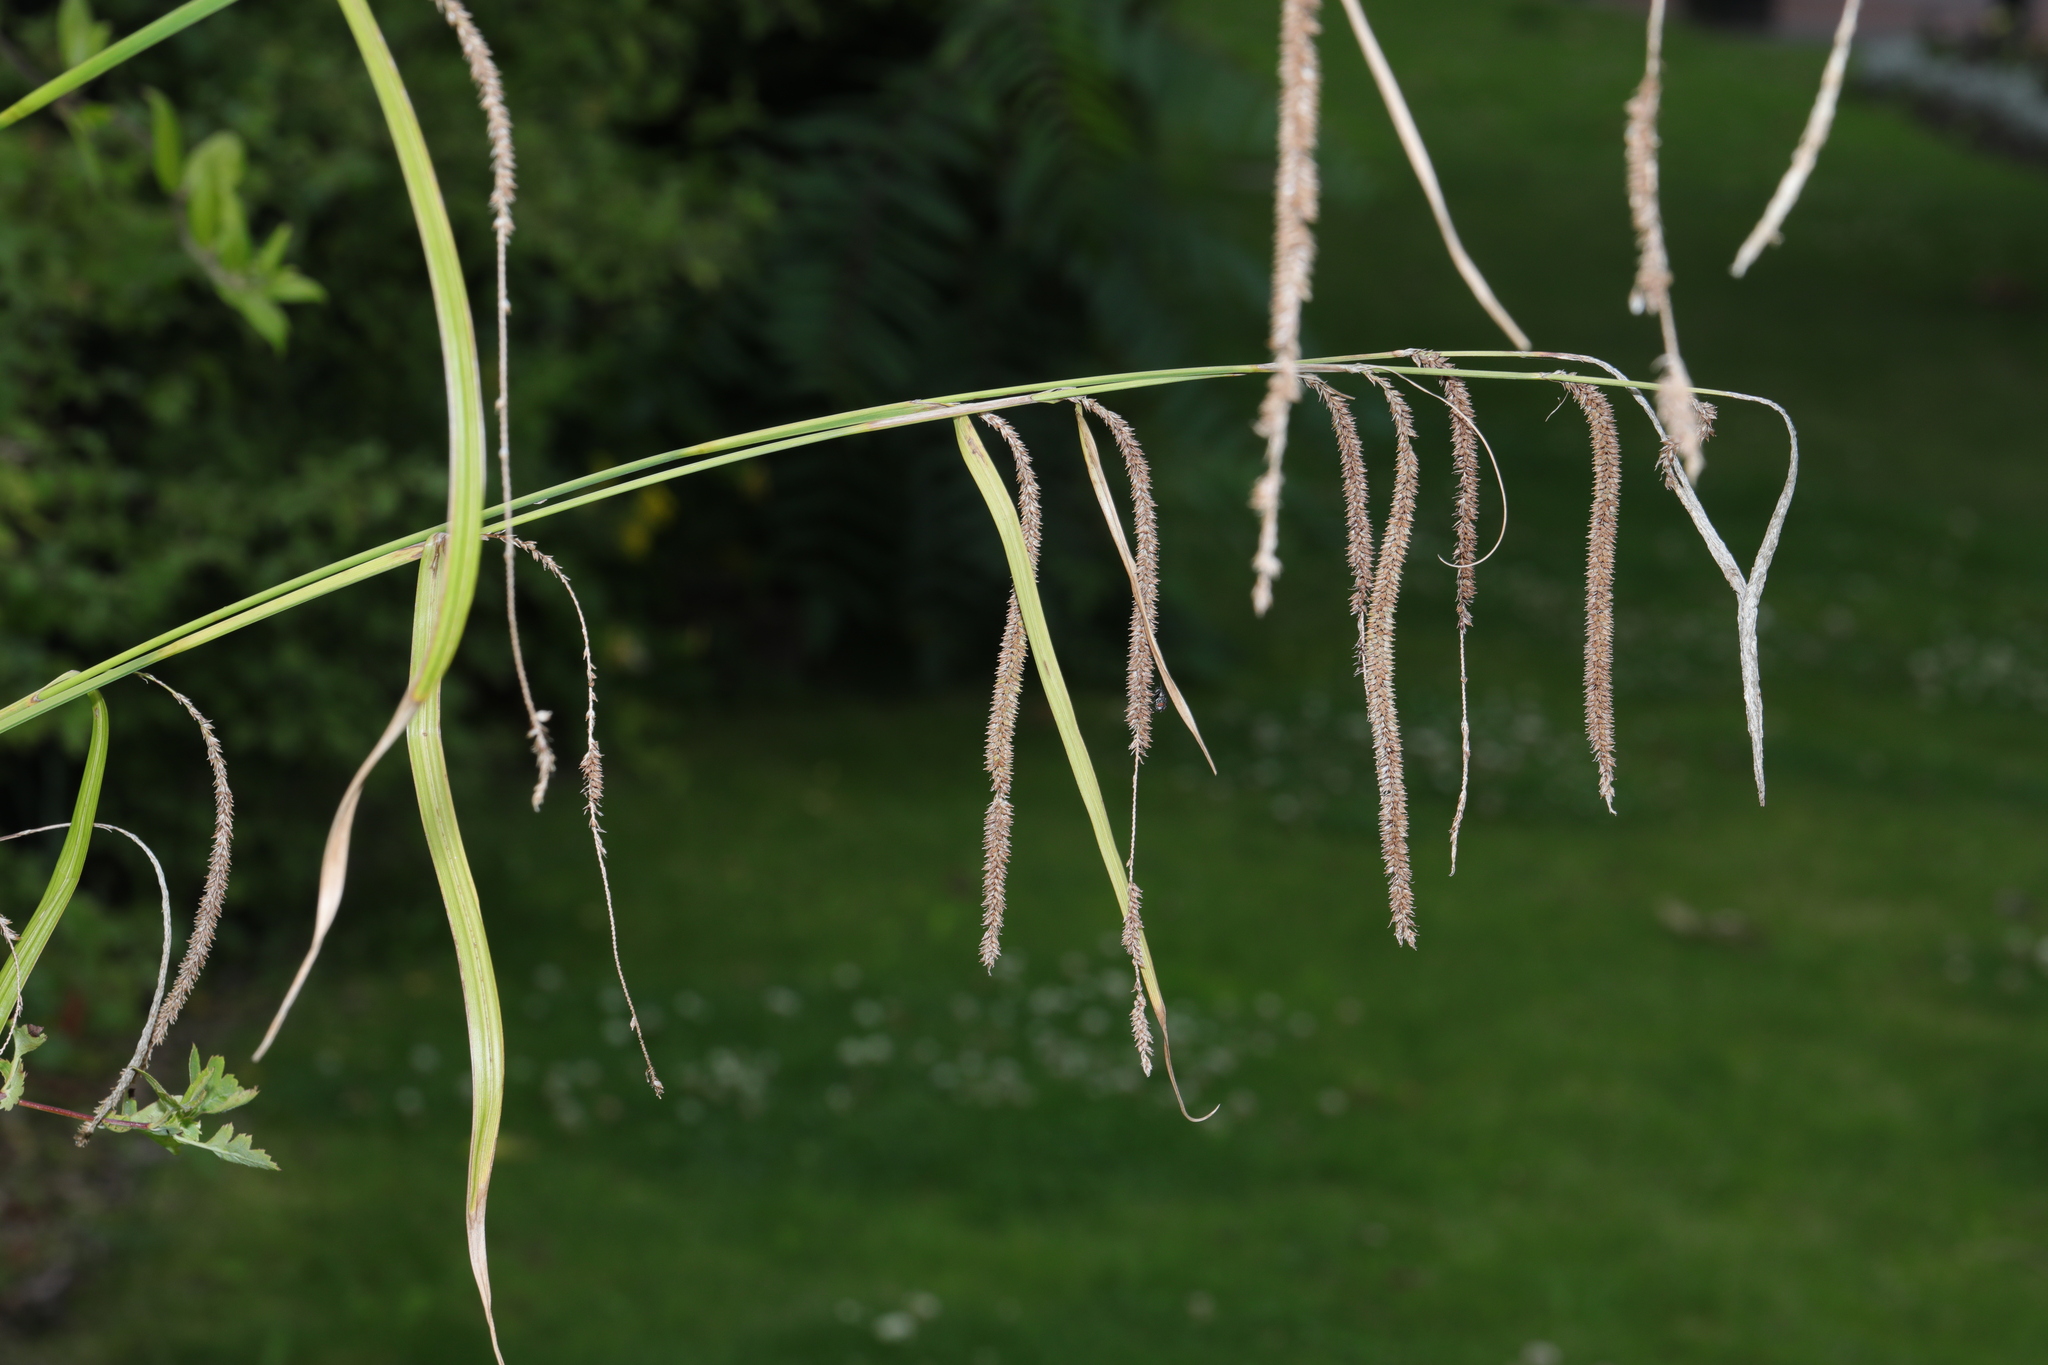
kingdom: Plantae
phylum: Tracheophyta
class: Liliopsida
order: Poales
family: Cyperaceae
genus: Carex
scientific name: Carex pendula
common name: Pendulous sedge
